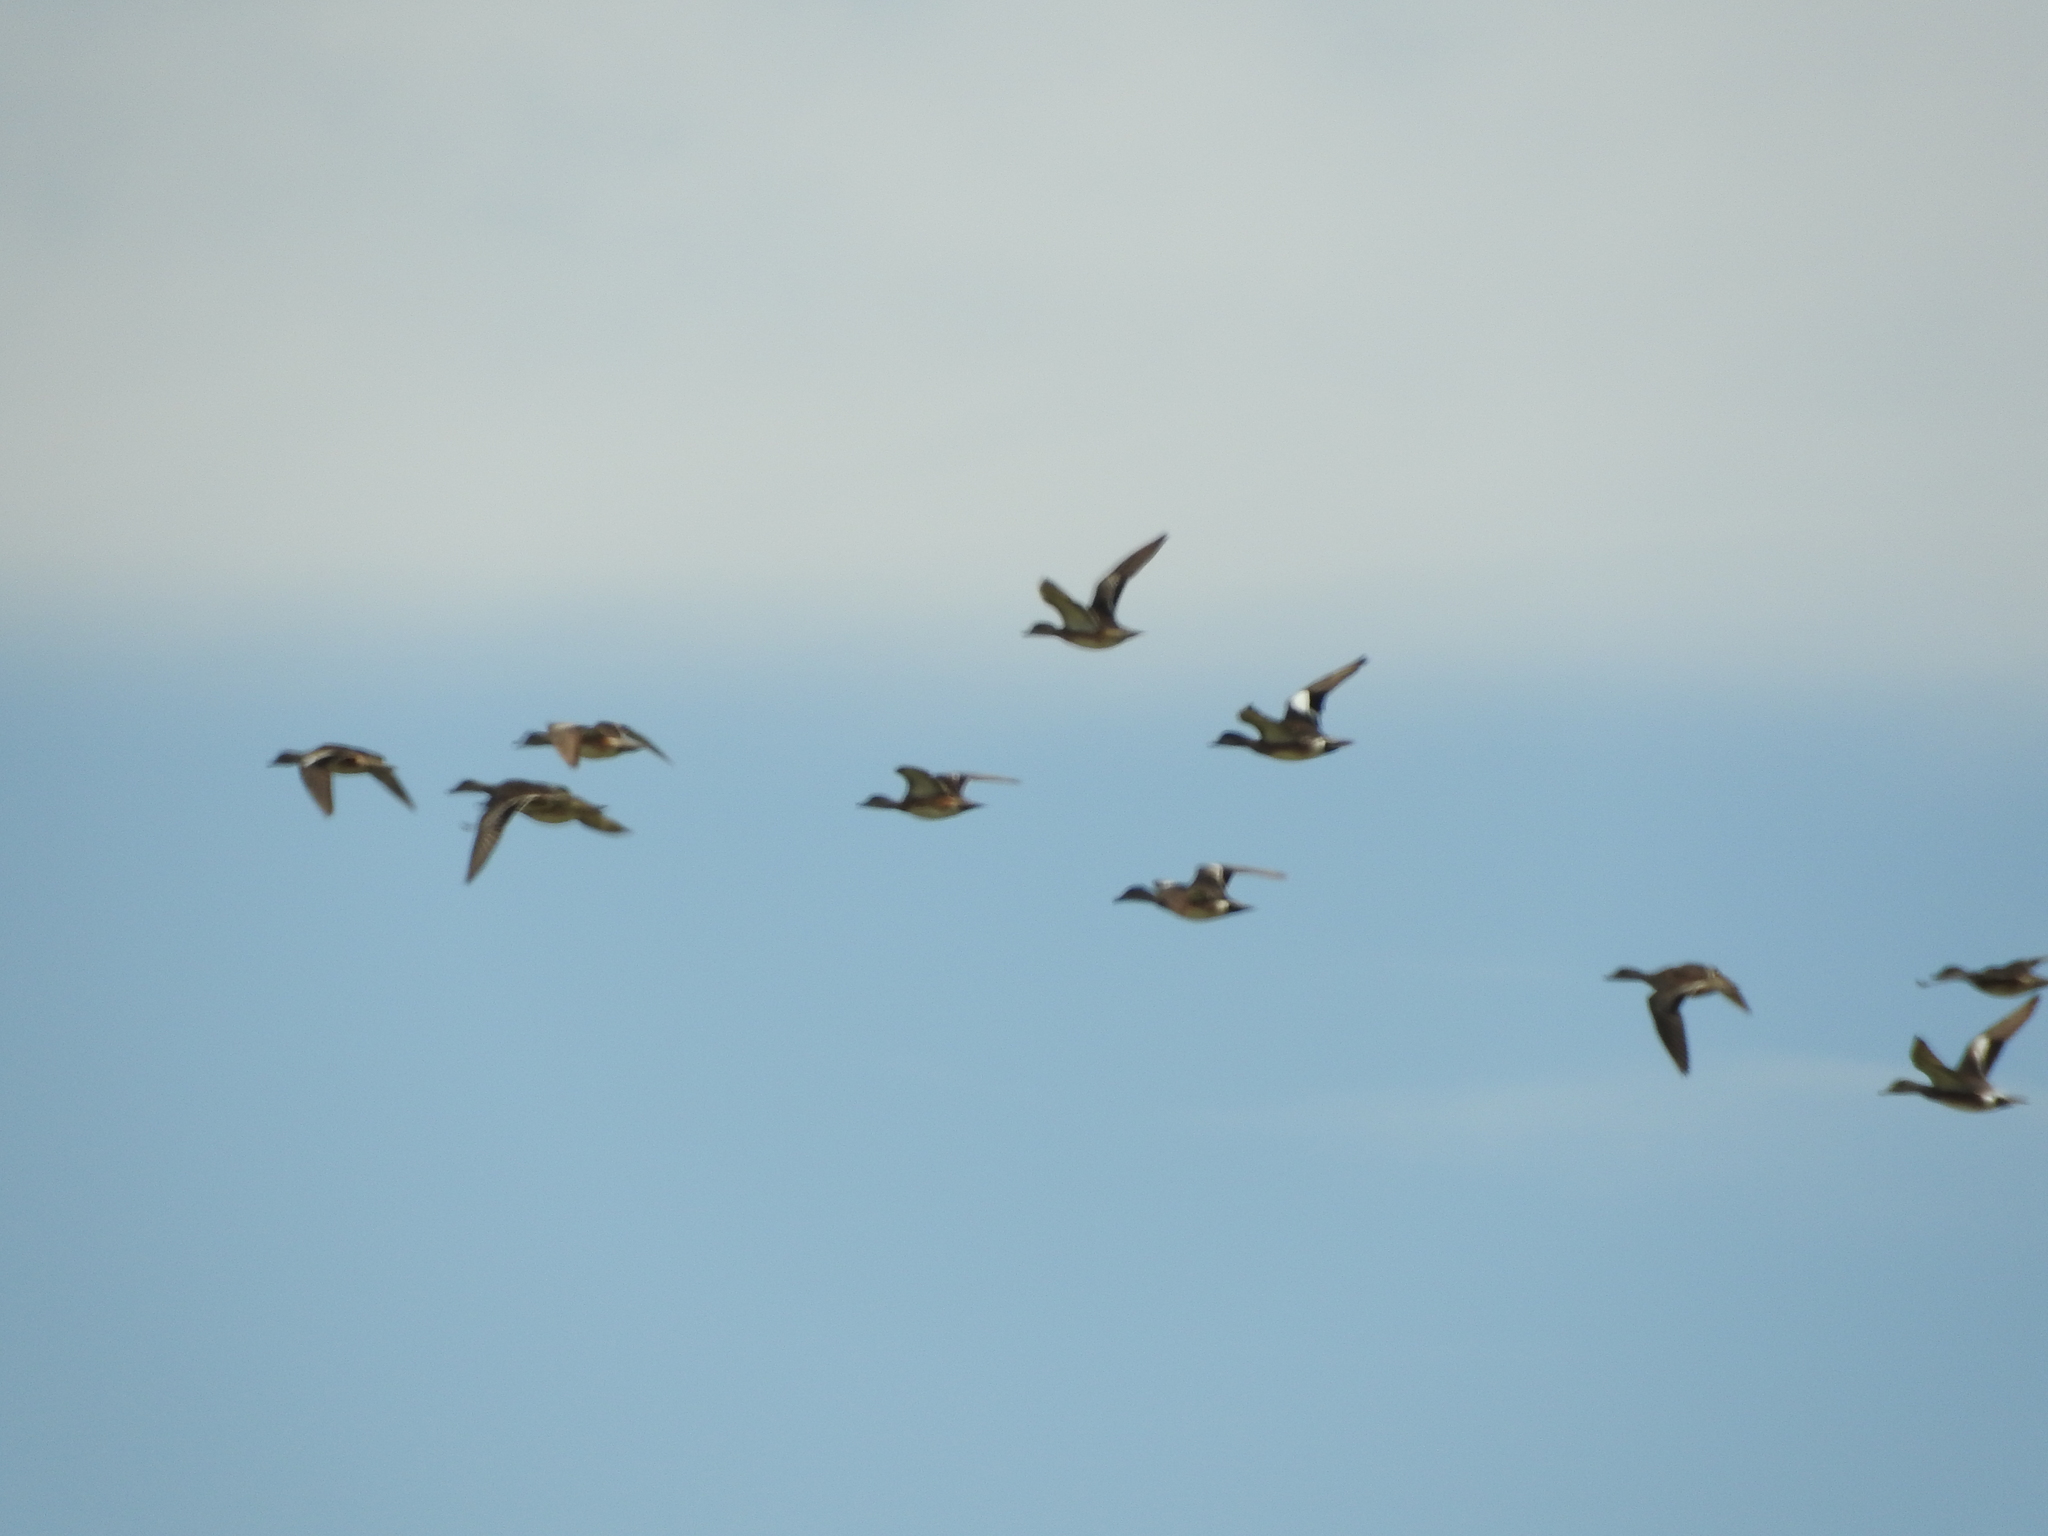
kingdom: Animalia
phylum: Chordata
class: Aves
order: Anseriformes
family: Anatidae
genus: Mareca
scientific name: Mareca strepera
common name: Gadwall
